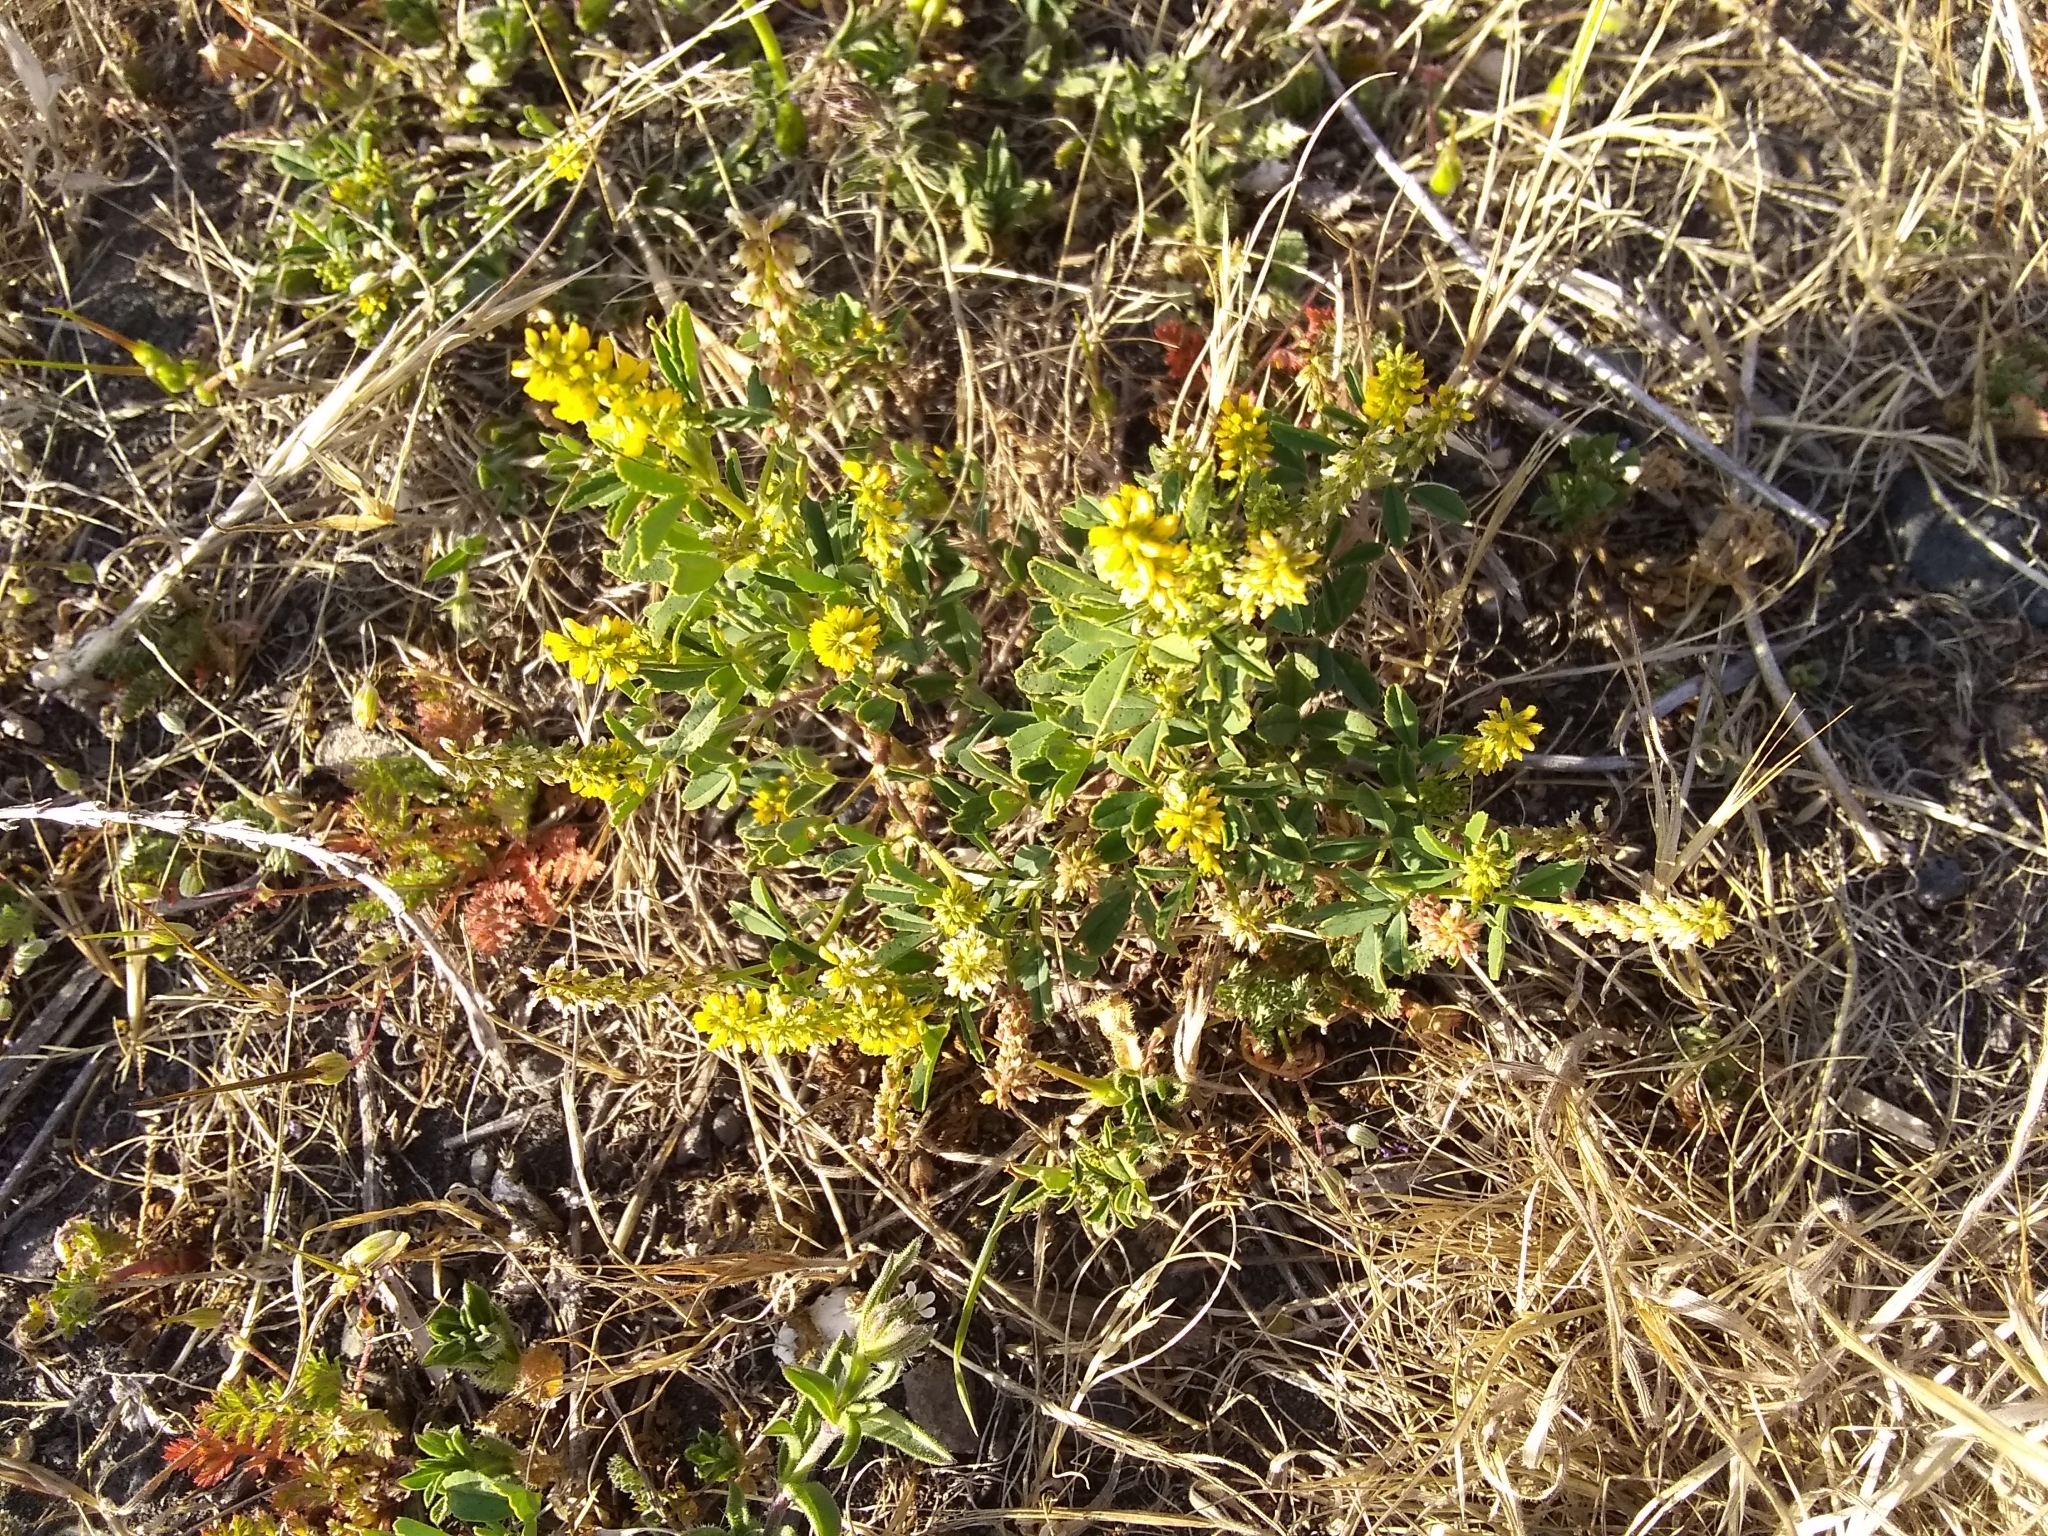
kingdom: Plantae
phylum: Tracheophyta
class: Magnoliopsida
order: Fabales
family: Fabaceae
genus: Melilotus
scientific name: Melilotus indicus
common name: Small melilot
